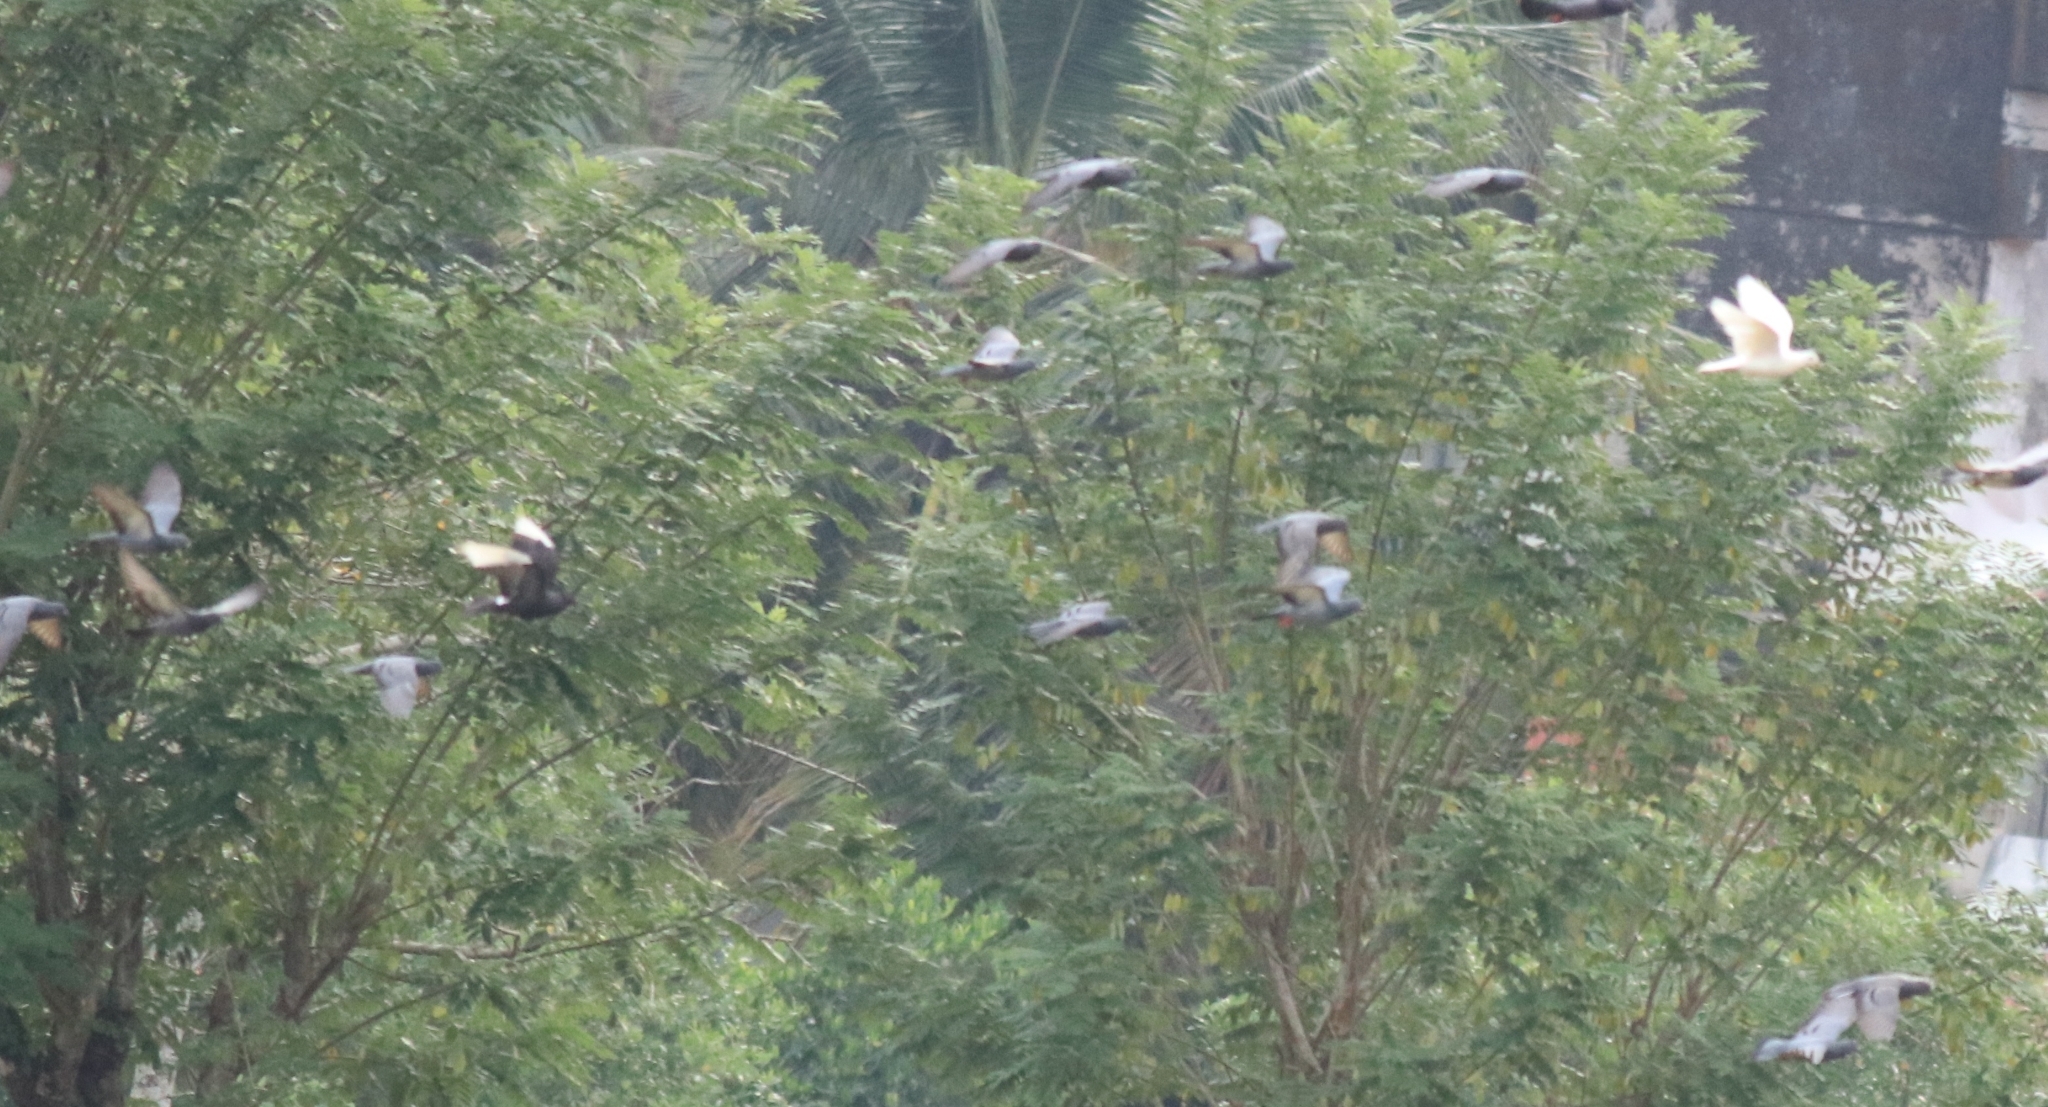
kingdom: Animalia
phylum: Chordata
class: Aves
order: Columbiformes
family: Columbidae
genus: Columba
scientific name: Columba livia
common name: Rock pigeon
